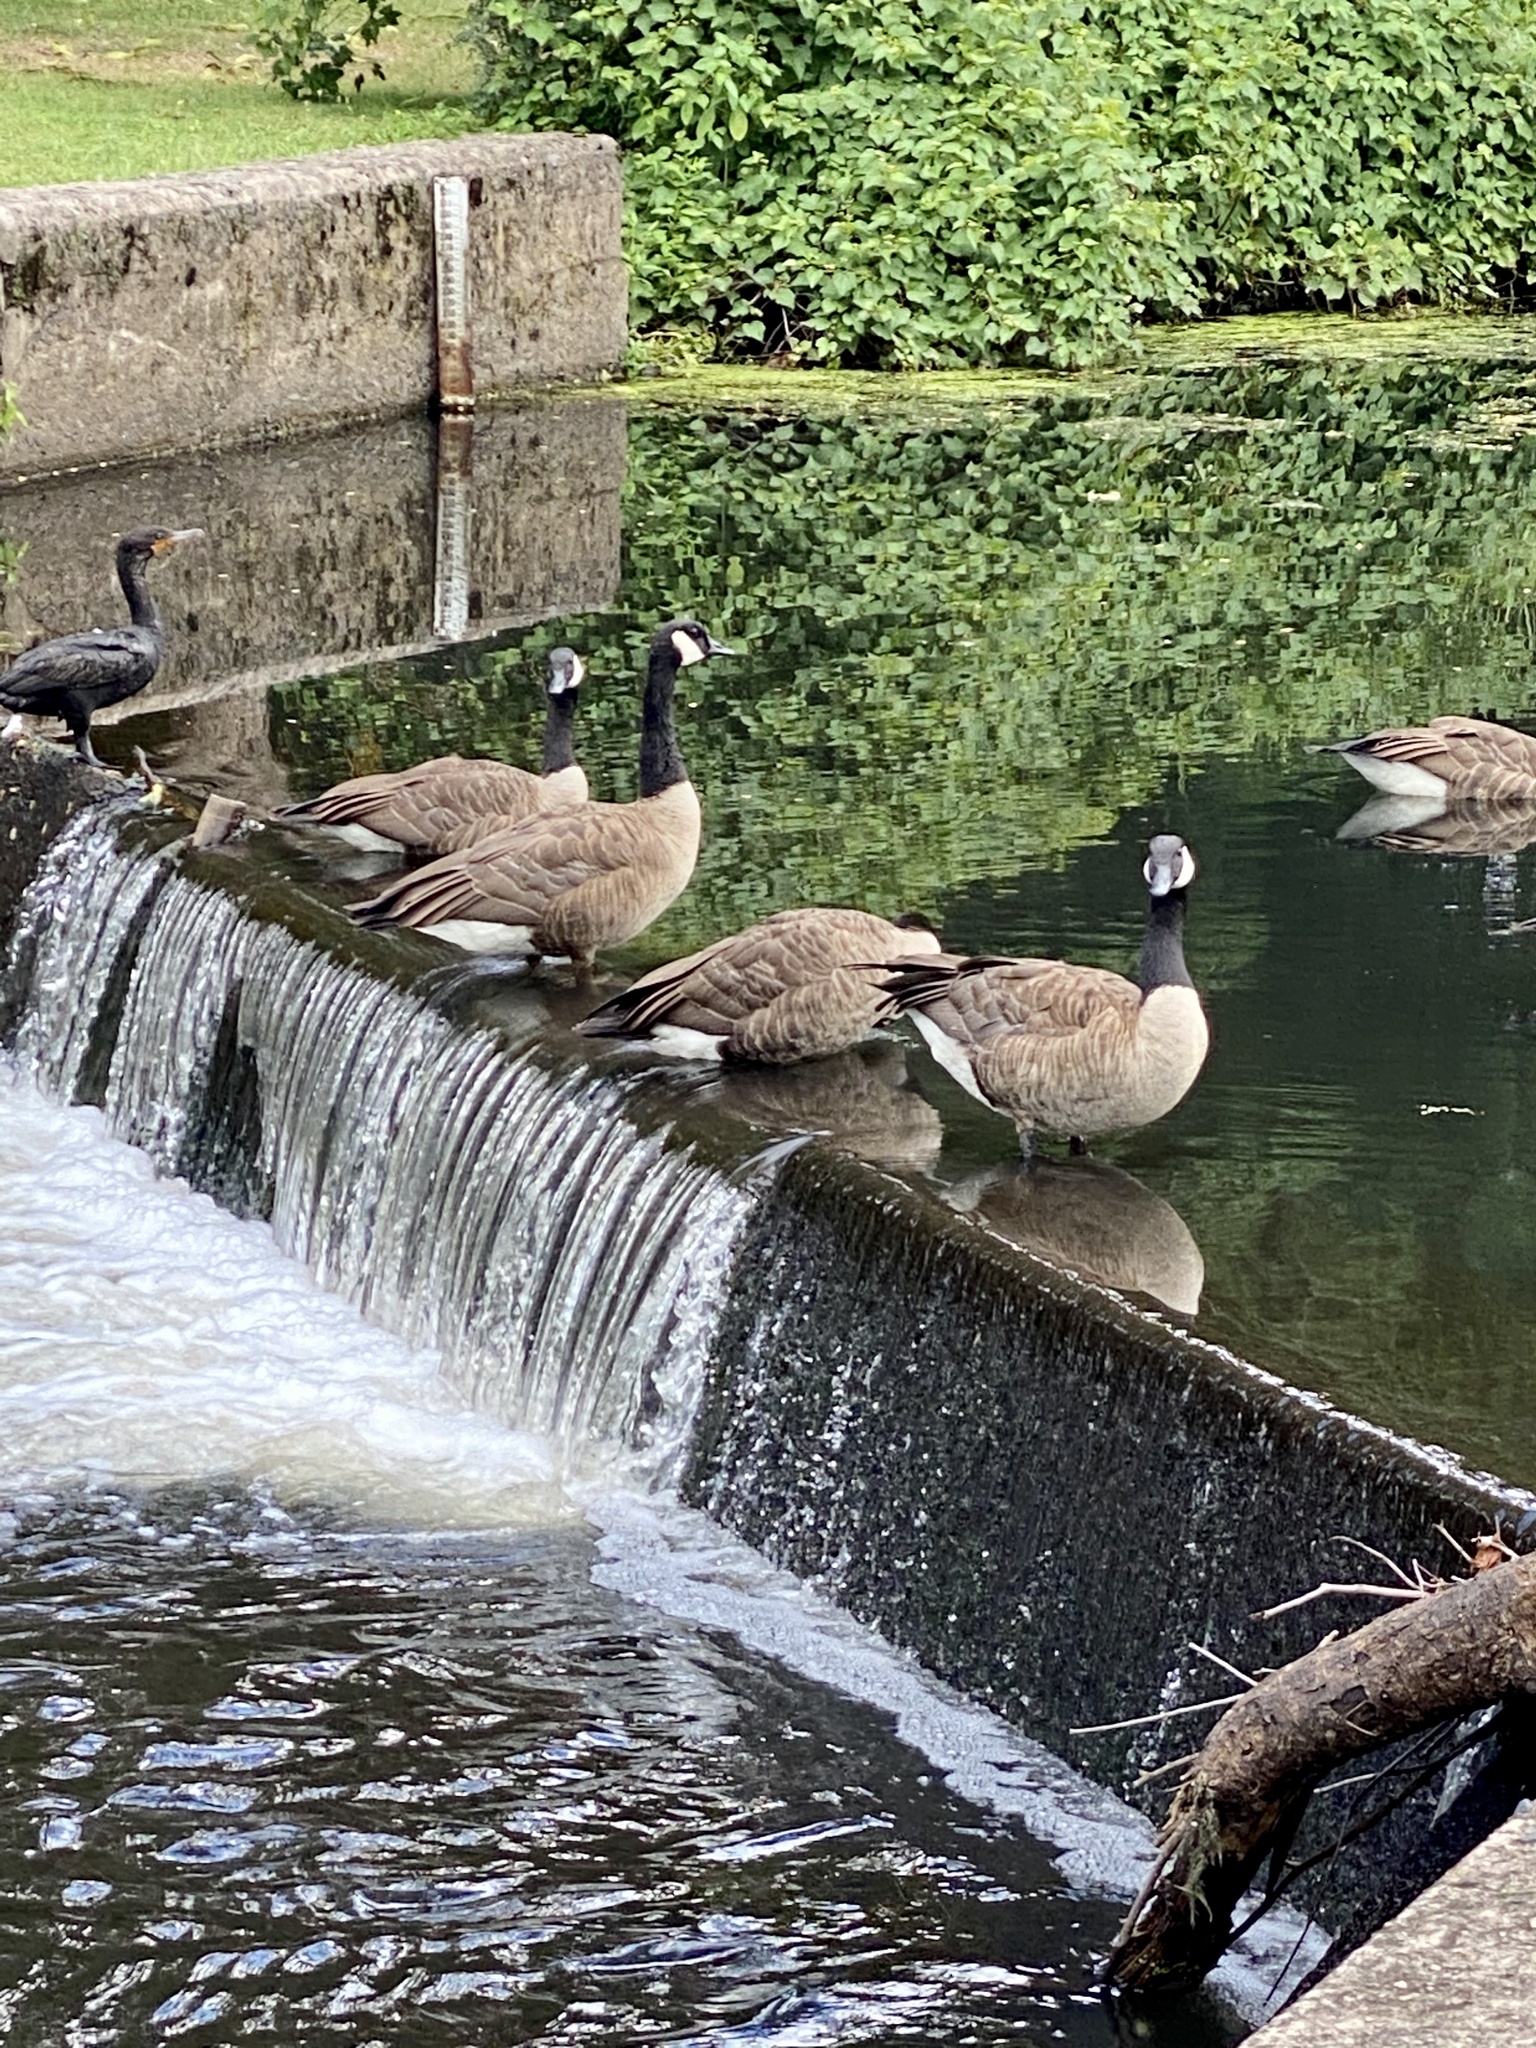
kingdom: Animalia
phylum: Chordata
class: Aves
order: Anseriformes
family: Anatidae
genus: Branta
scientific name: Branta canadensis
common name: Canada goose
